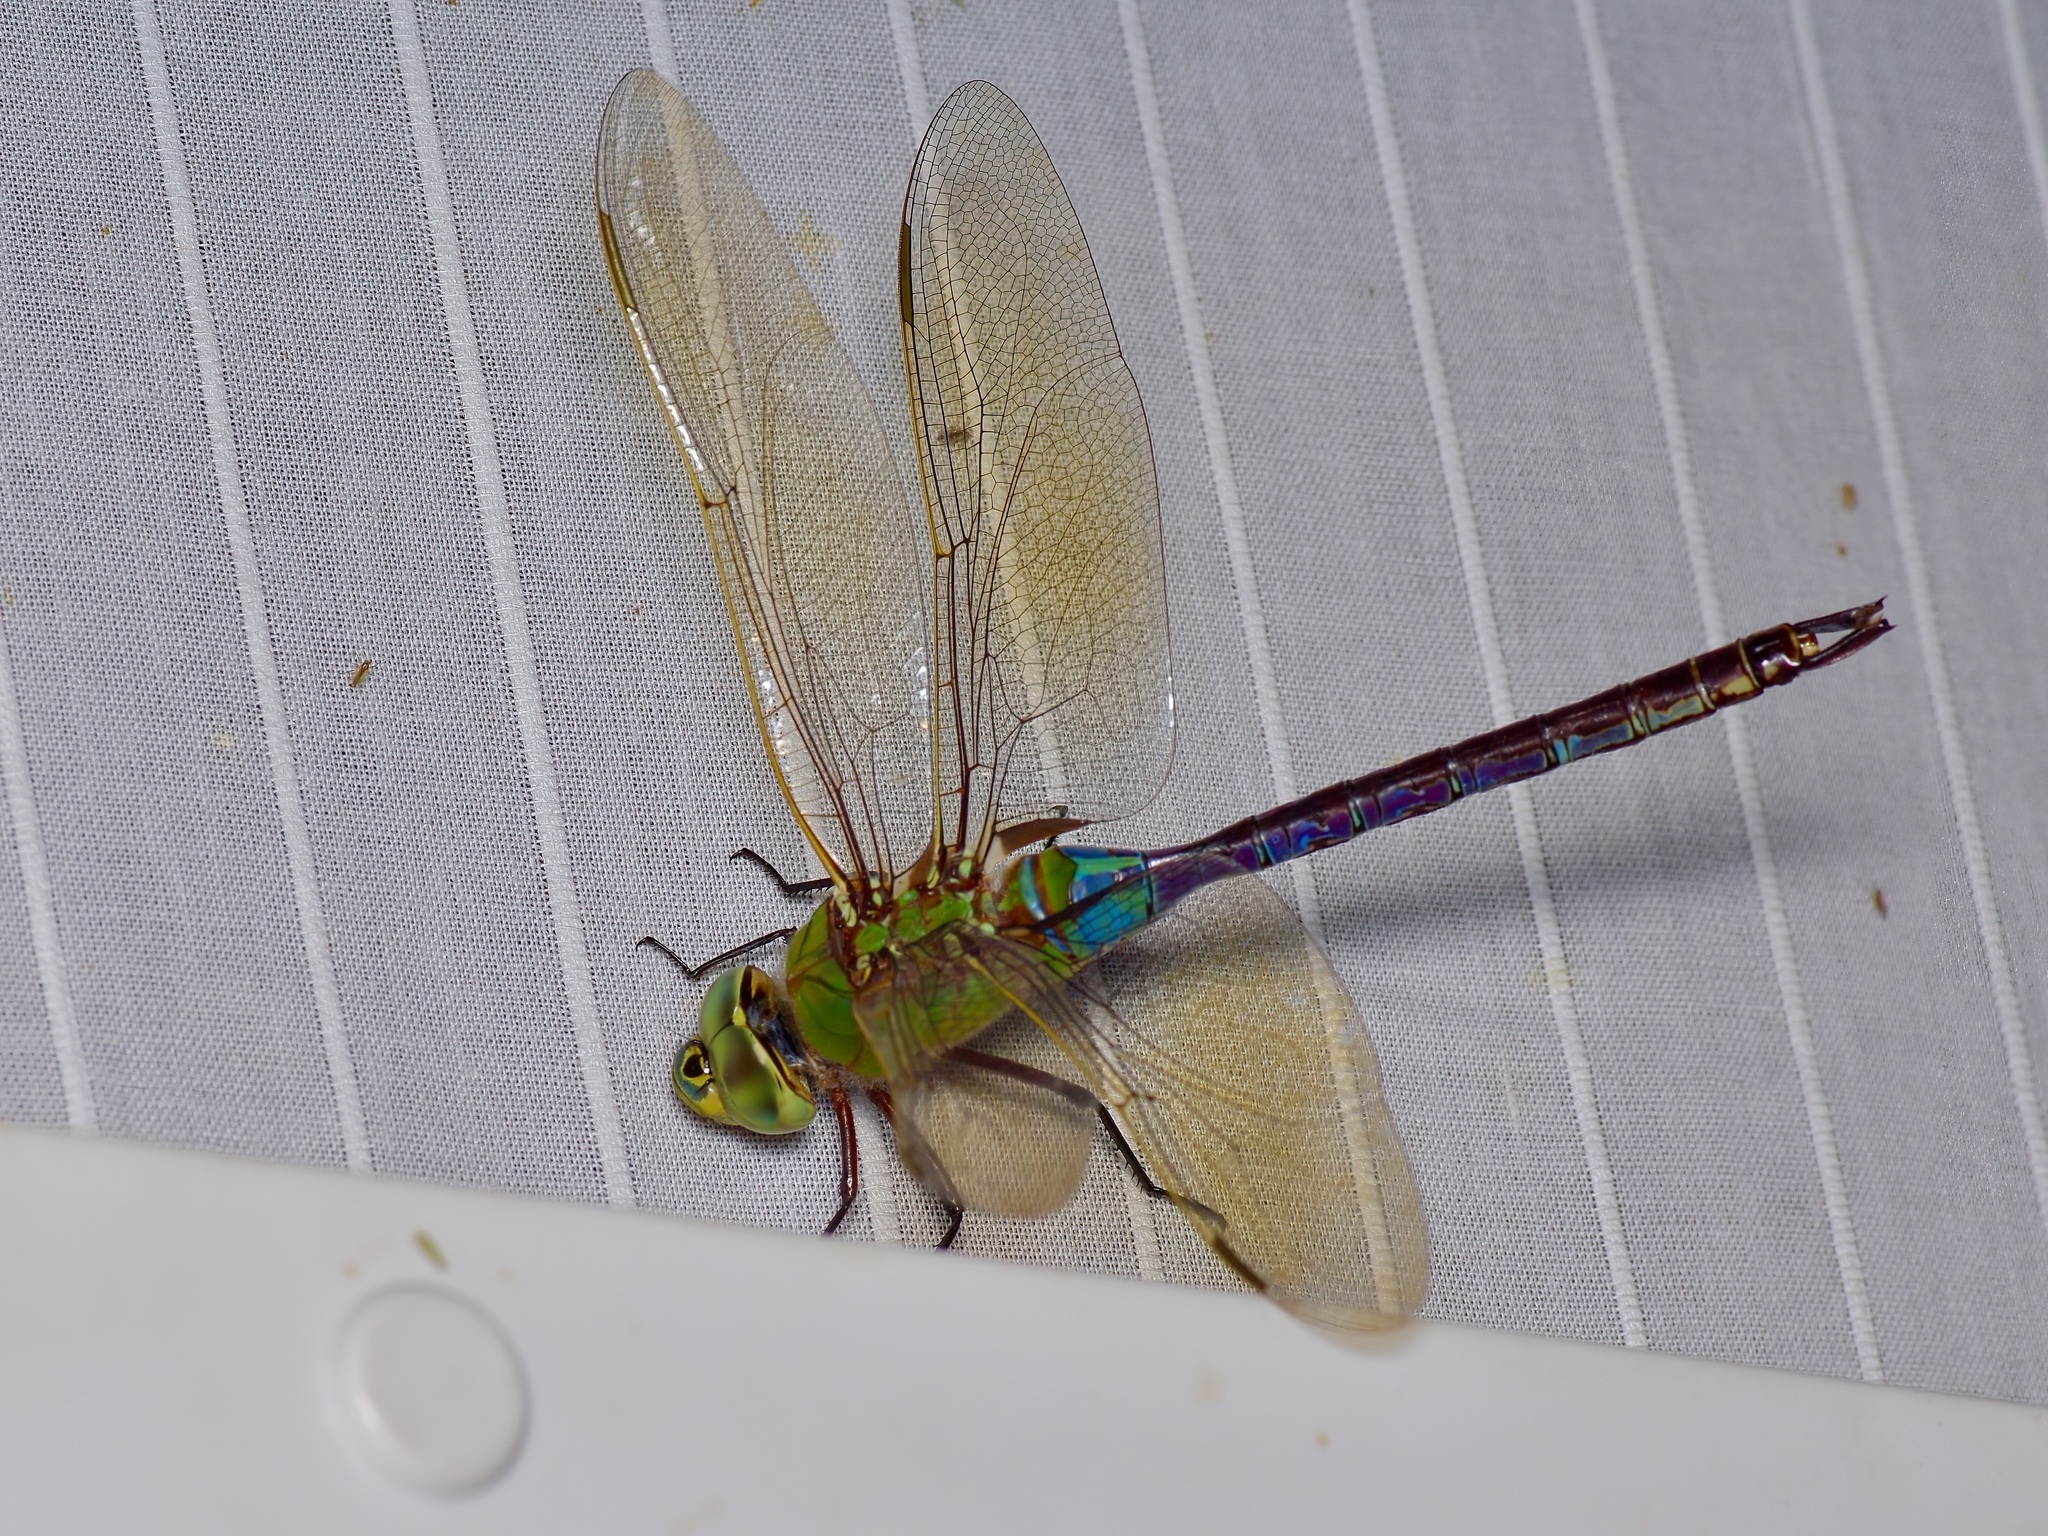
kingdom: Animalia
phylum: Arthropoda
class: Insecta
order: Odonata
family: Aeshnidae
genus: Anax
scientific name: Anax junius
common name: Common green darner
